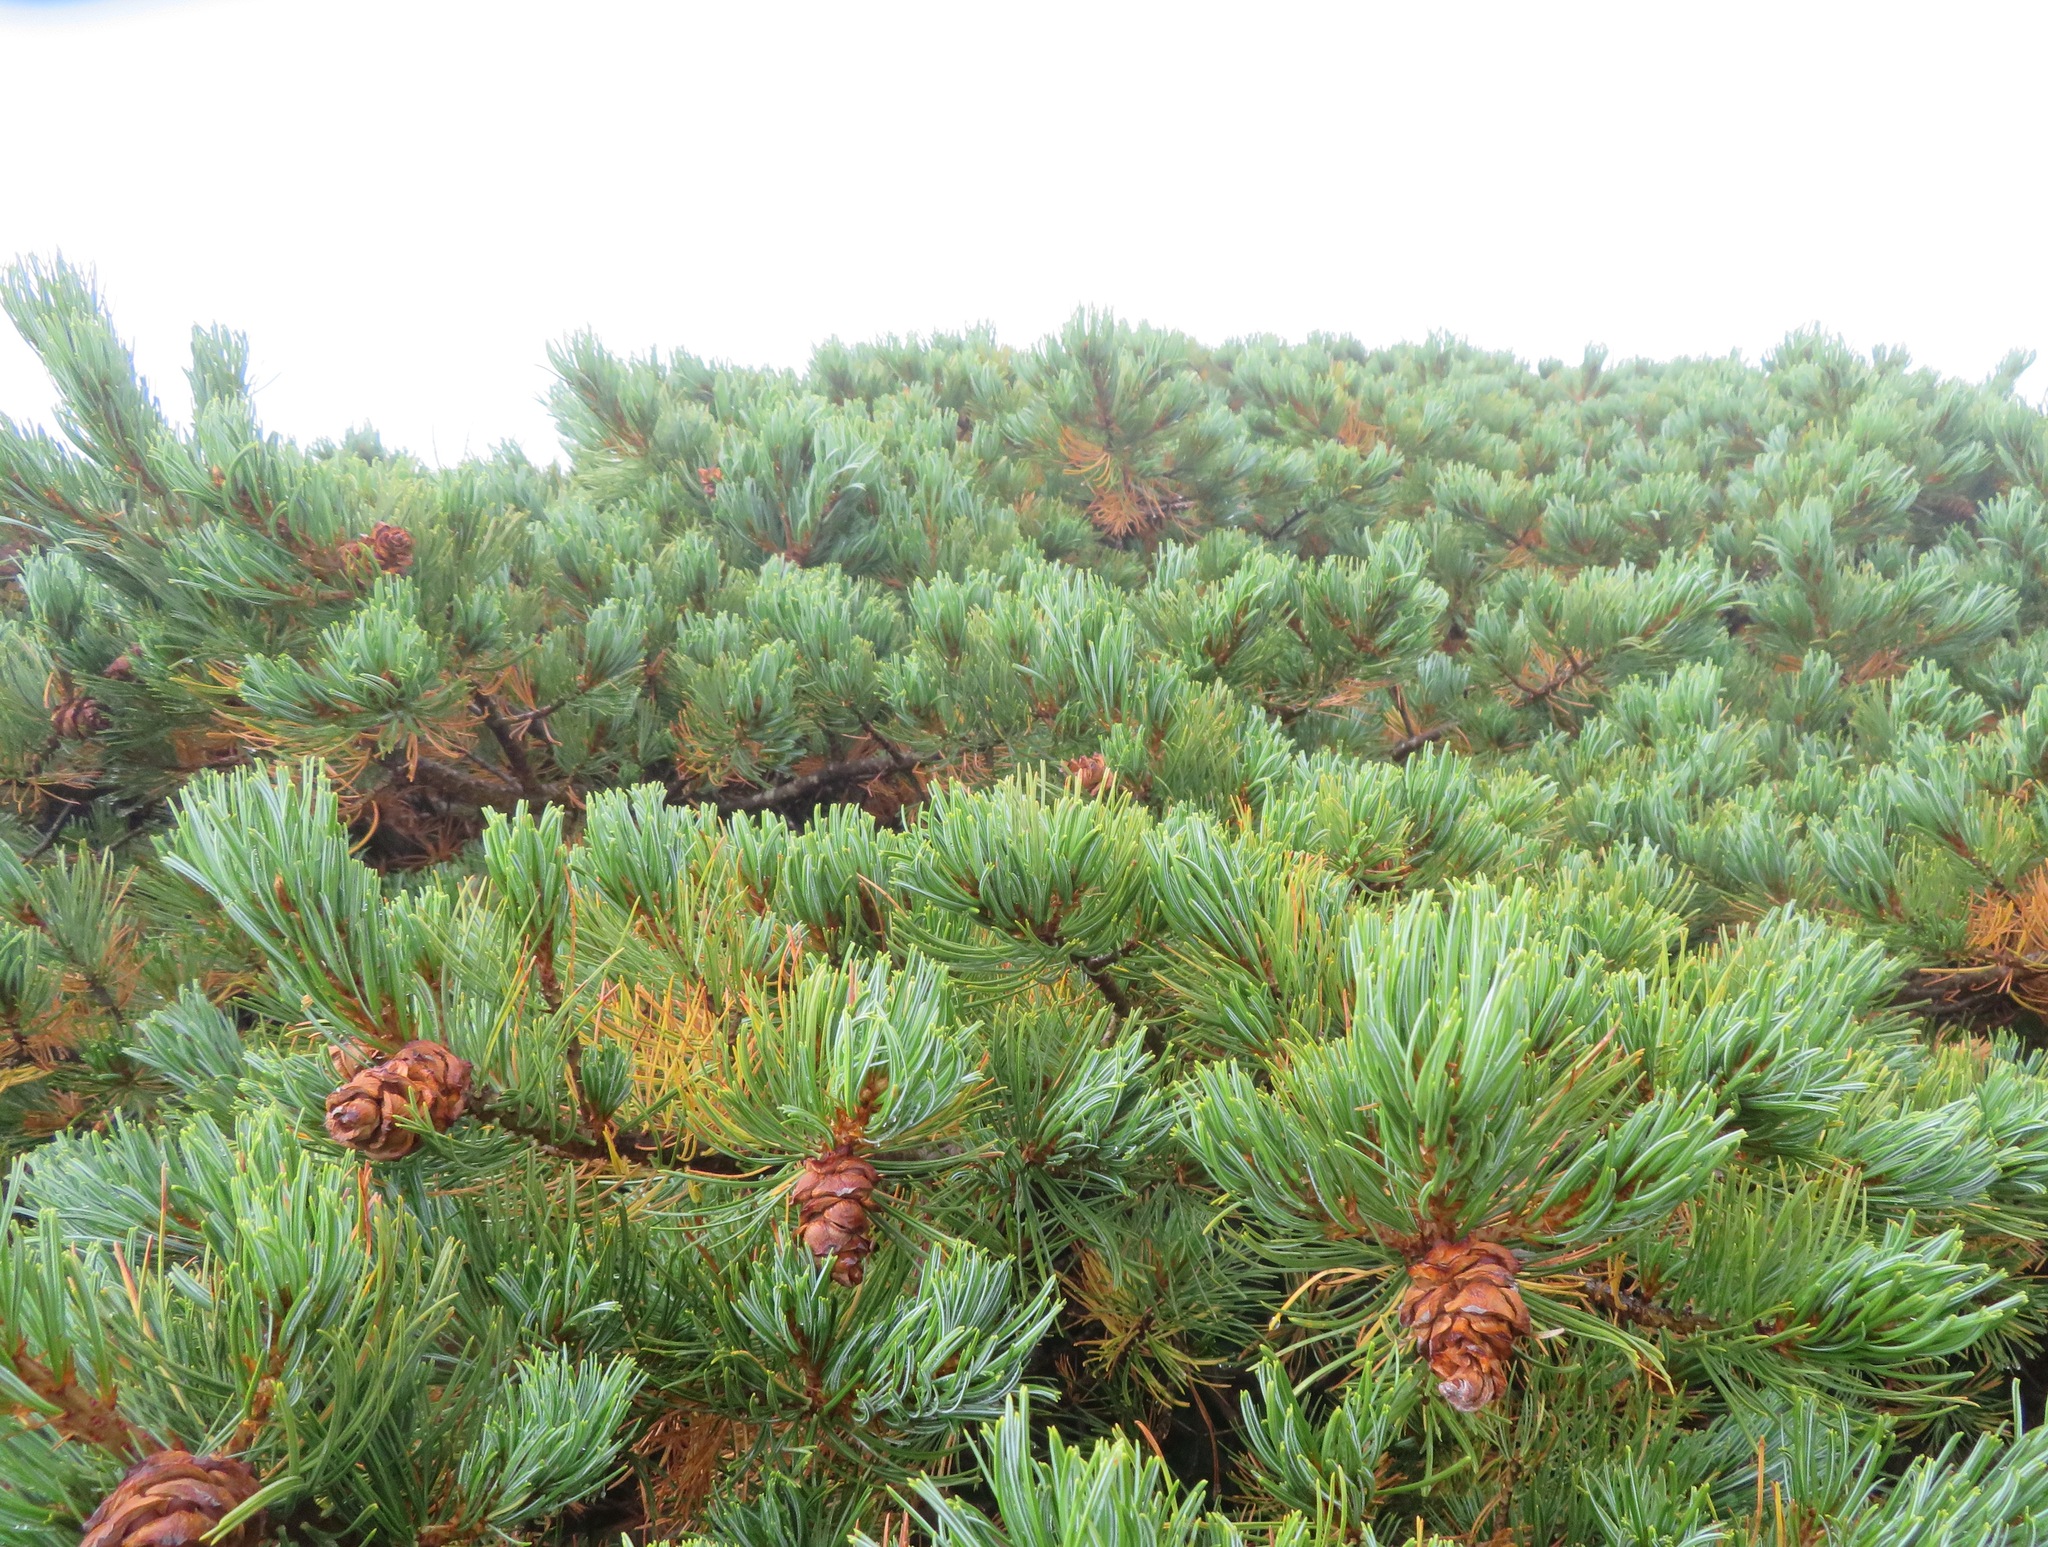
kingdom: Plantae
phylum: Tracheophyta
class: Pinopsida
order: Pinales
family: Pinaceae
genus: Pinus
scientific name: Pinus pumila
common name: Dwarf siberian pine
